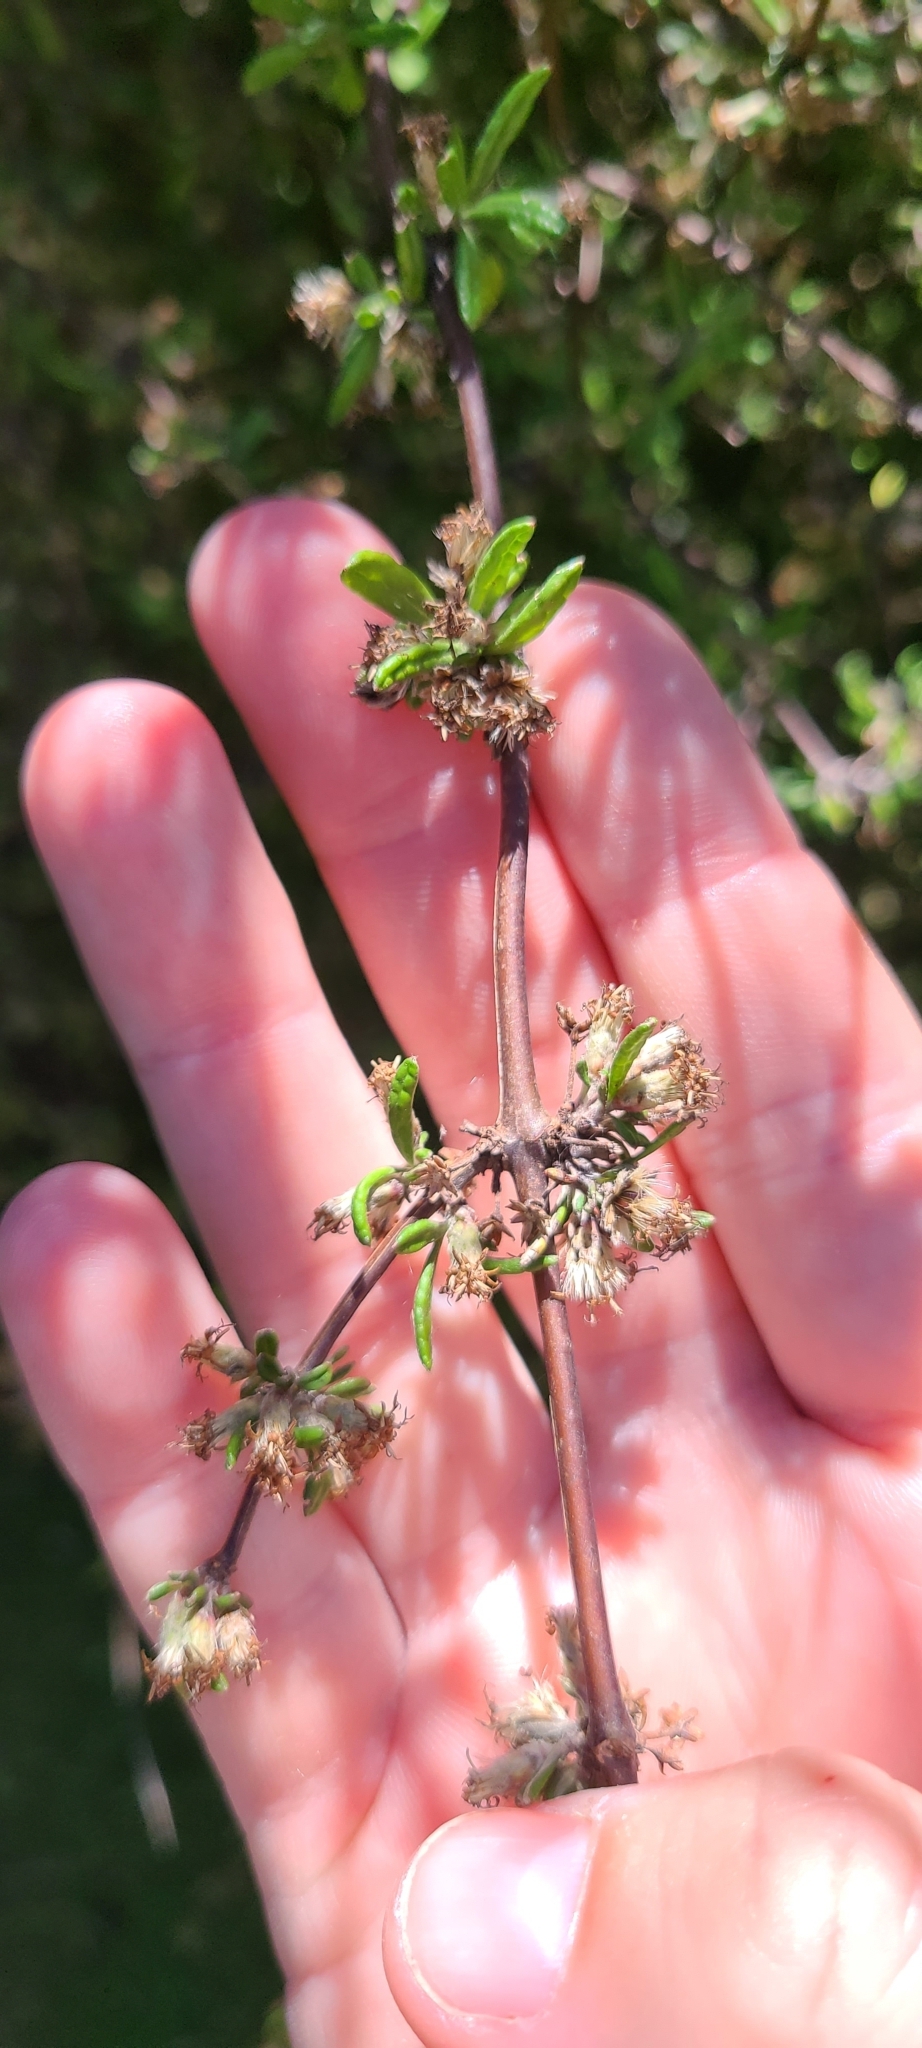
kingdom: Plantae
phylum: Tracheophyta
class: Magnoliopsida
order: Asterales
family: Asteraceae
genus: Olearia
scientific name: Olearia bullata
